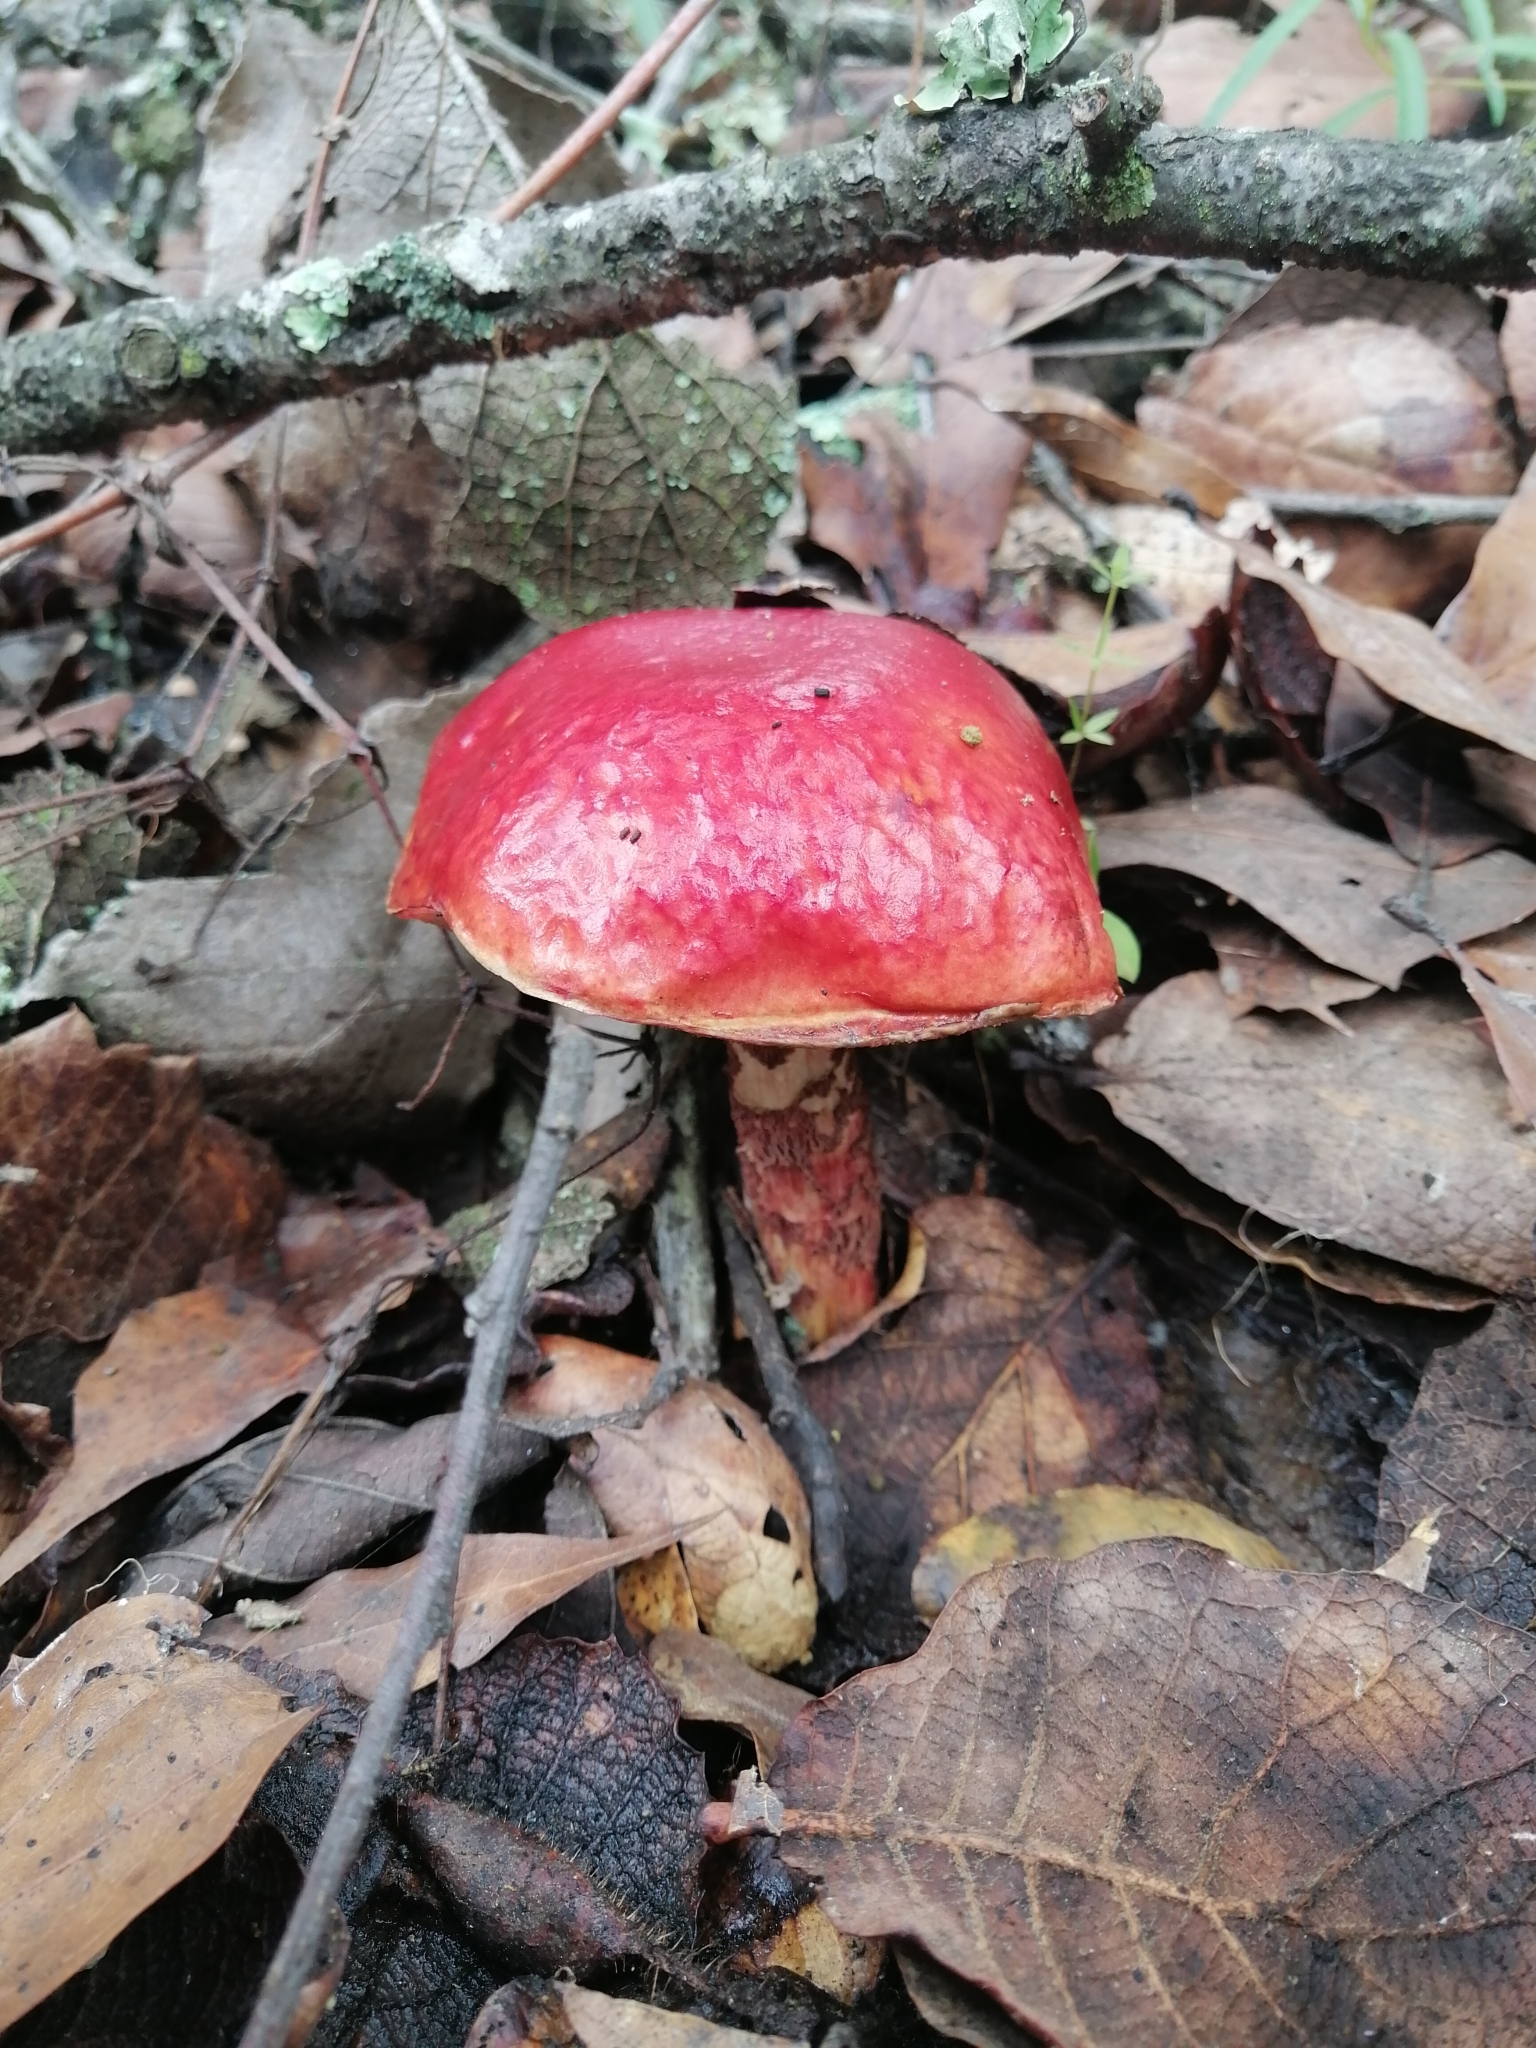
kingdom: Fungi
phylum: Basidiomycota
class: Agaricomycetes
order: Boletales
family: Boletaceae
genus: Butyriboletus
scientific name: Butyriboletus frostii
